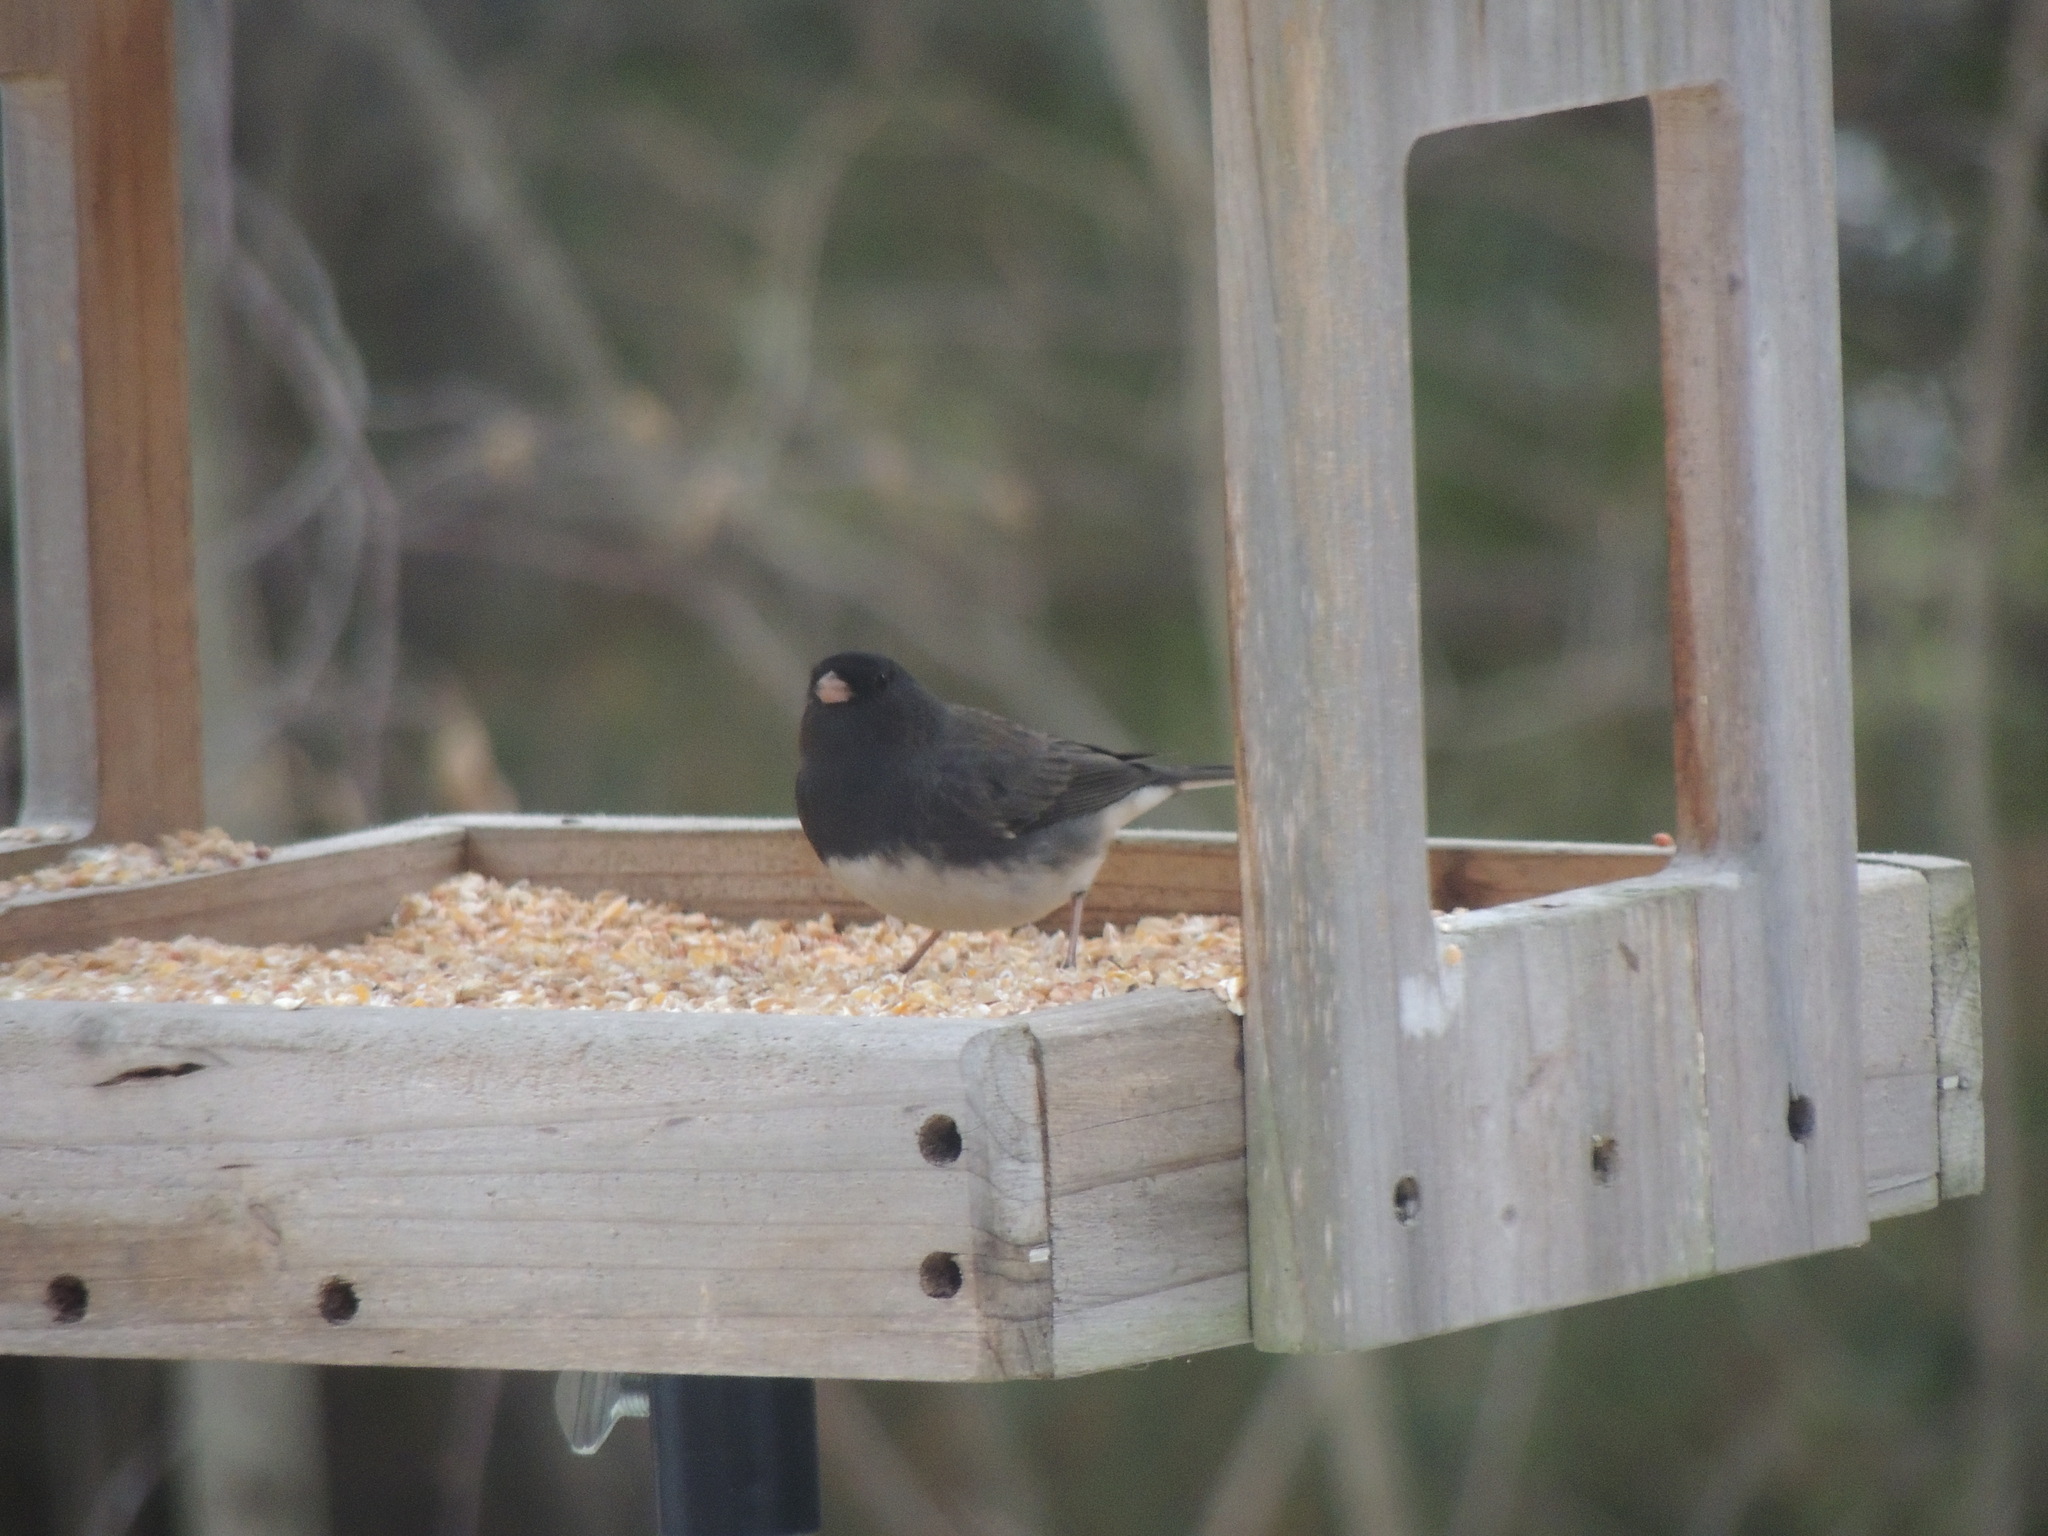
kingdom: Animalia
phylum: Chordata
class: Aves
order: Passeriformes
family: Passerellidae
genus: Junco
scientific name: Junco hyemalis
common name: Dark-eyed junco
